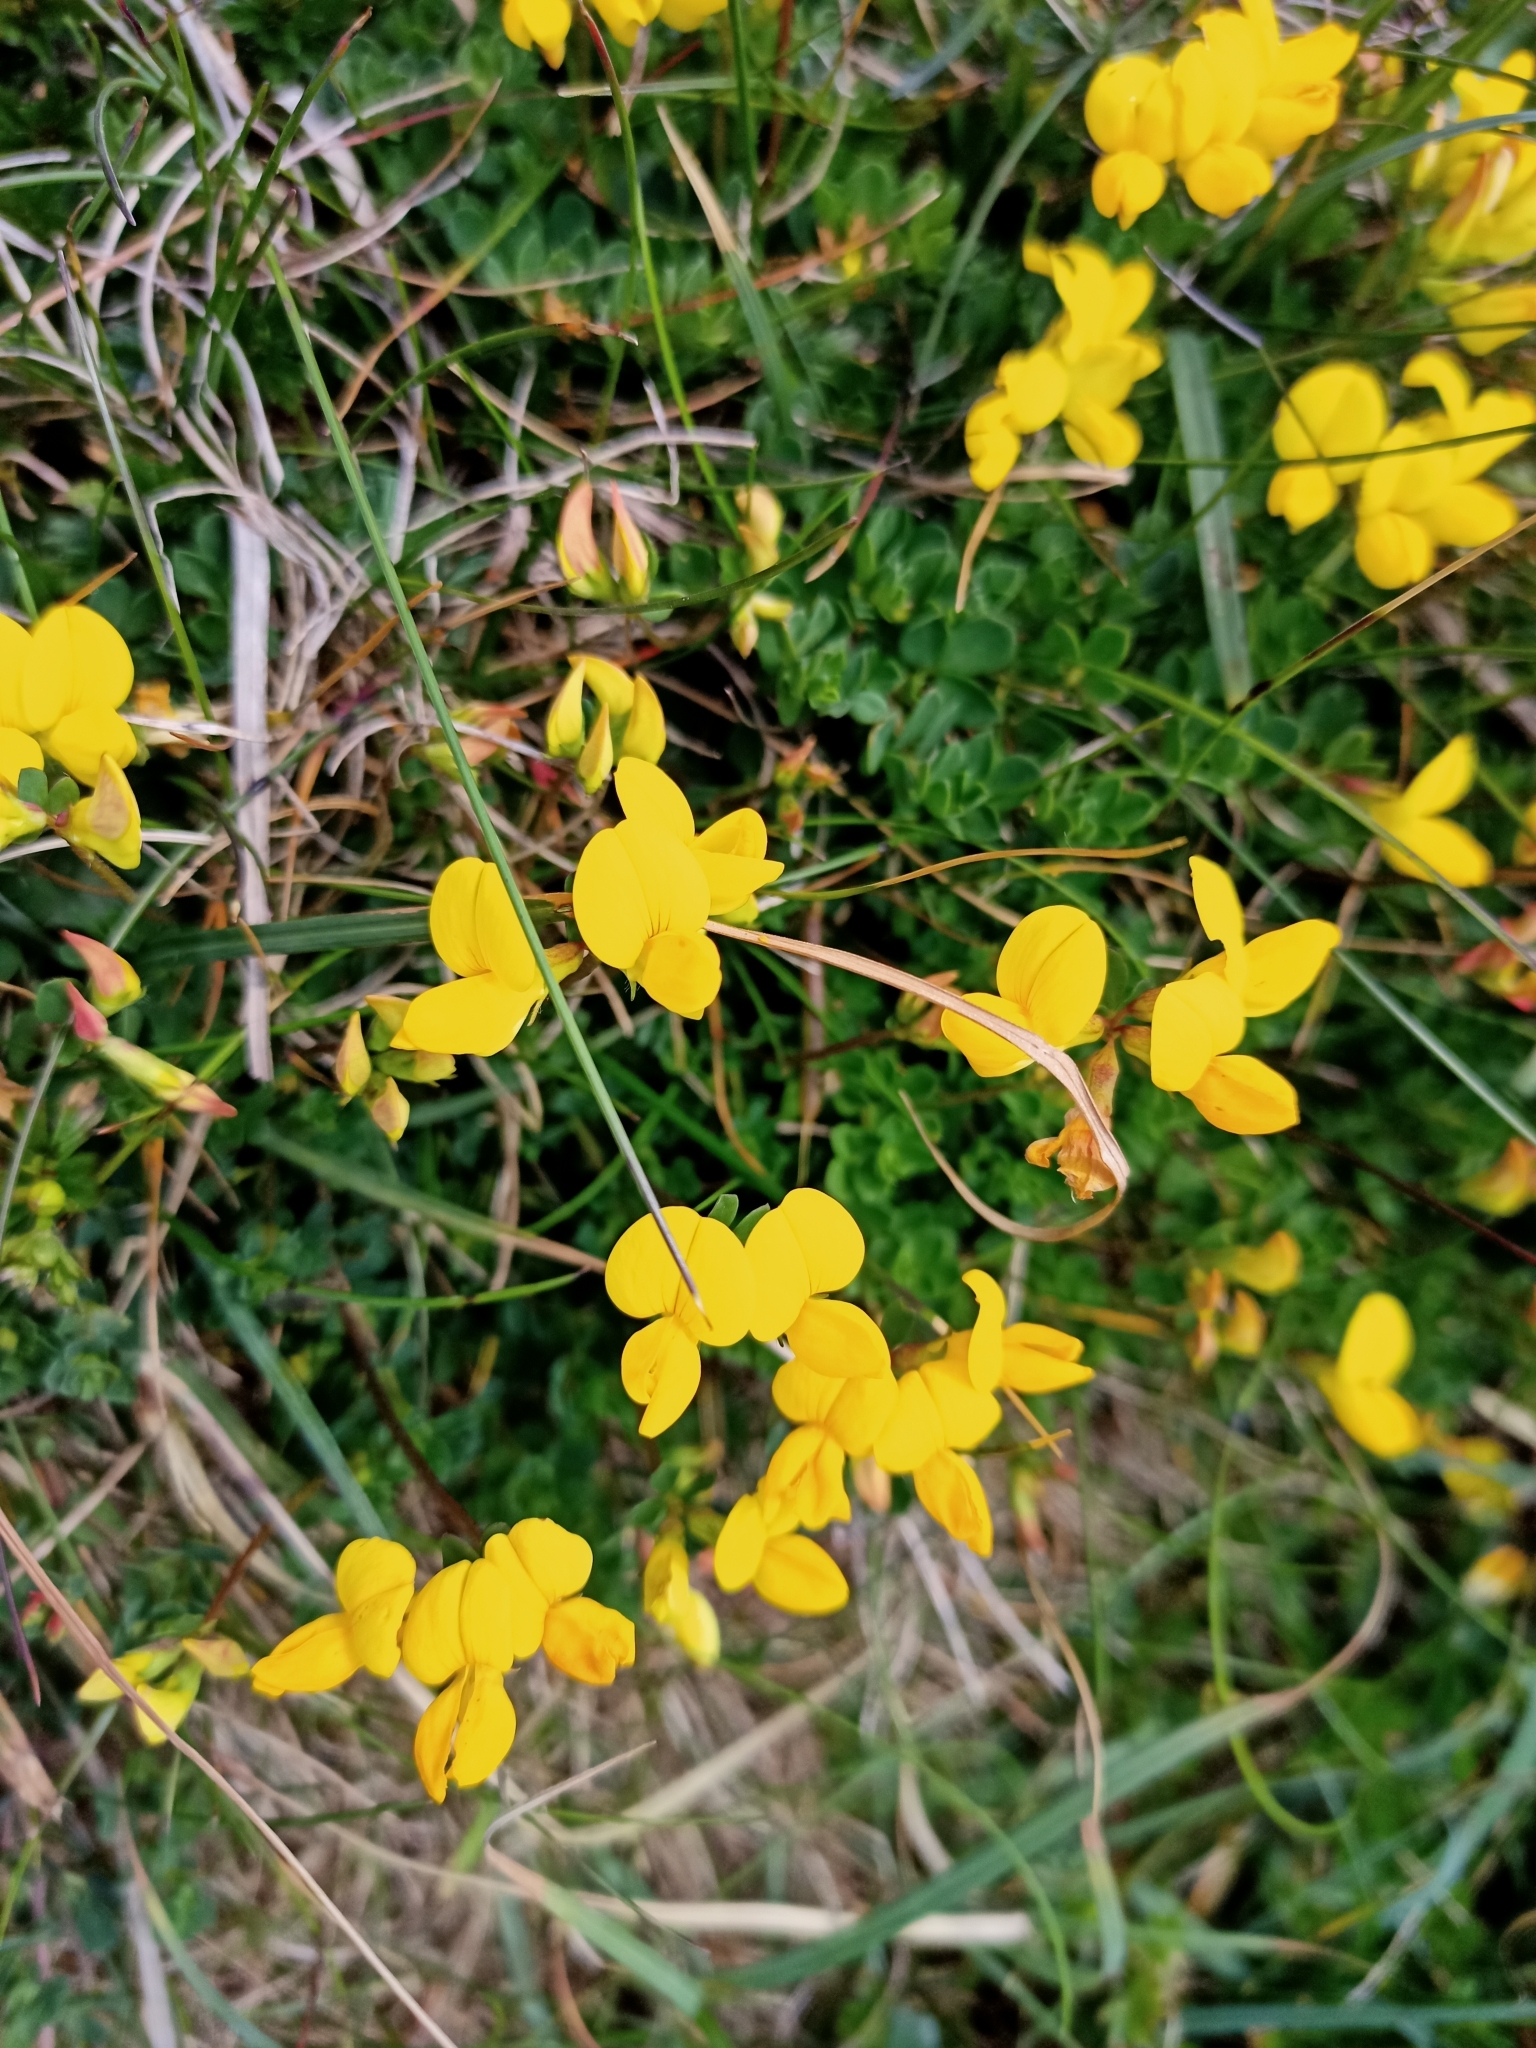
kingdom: Plantae
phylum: Tracheophyta
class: Magnoliopsida
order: Fabales
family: Fabaceae
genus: Lotus
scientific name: Lotus corniculatus
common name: Common bird's-foot-trefoil
